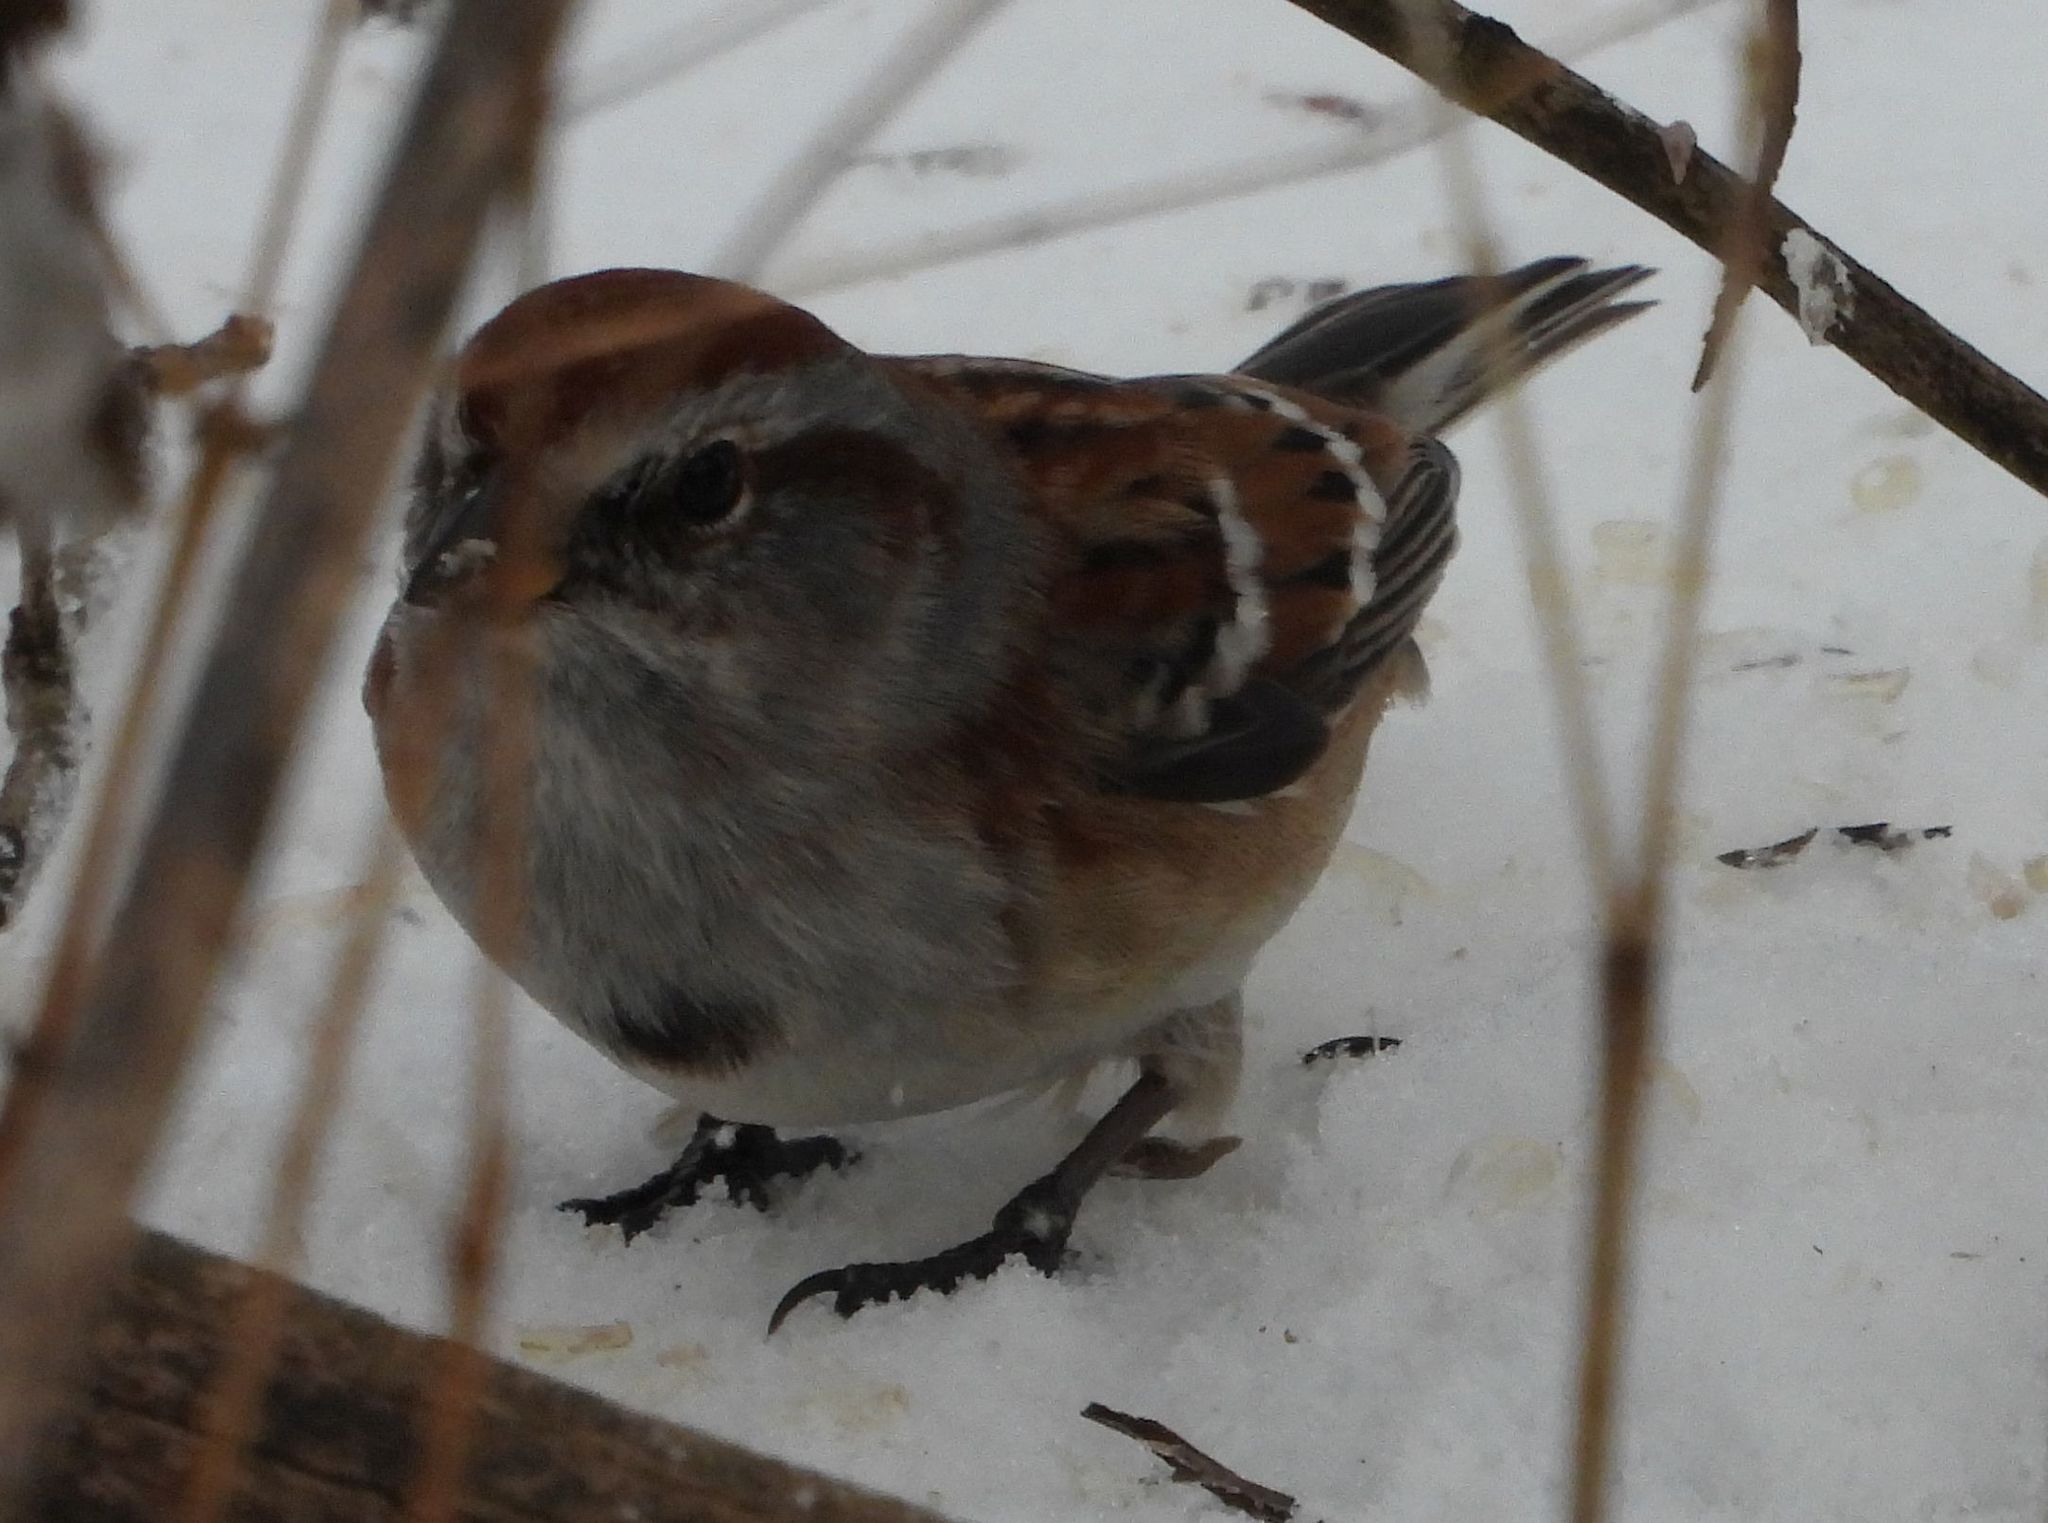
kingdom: Animalia
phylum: Chordata
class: Aves
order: Passeriformes
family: Passerellidae
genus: Spizelloides
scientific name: Spizelloides arborea
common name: American tree sparrow
